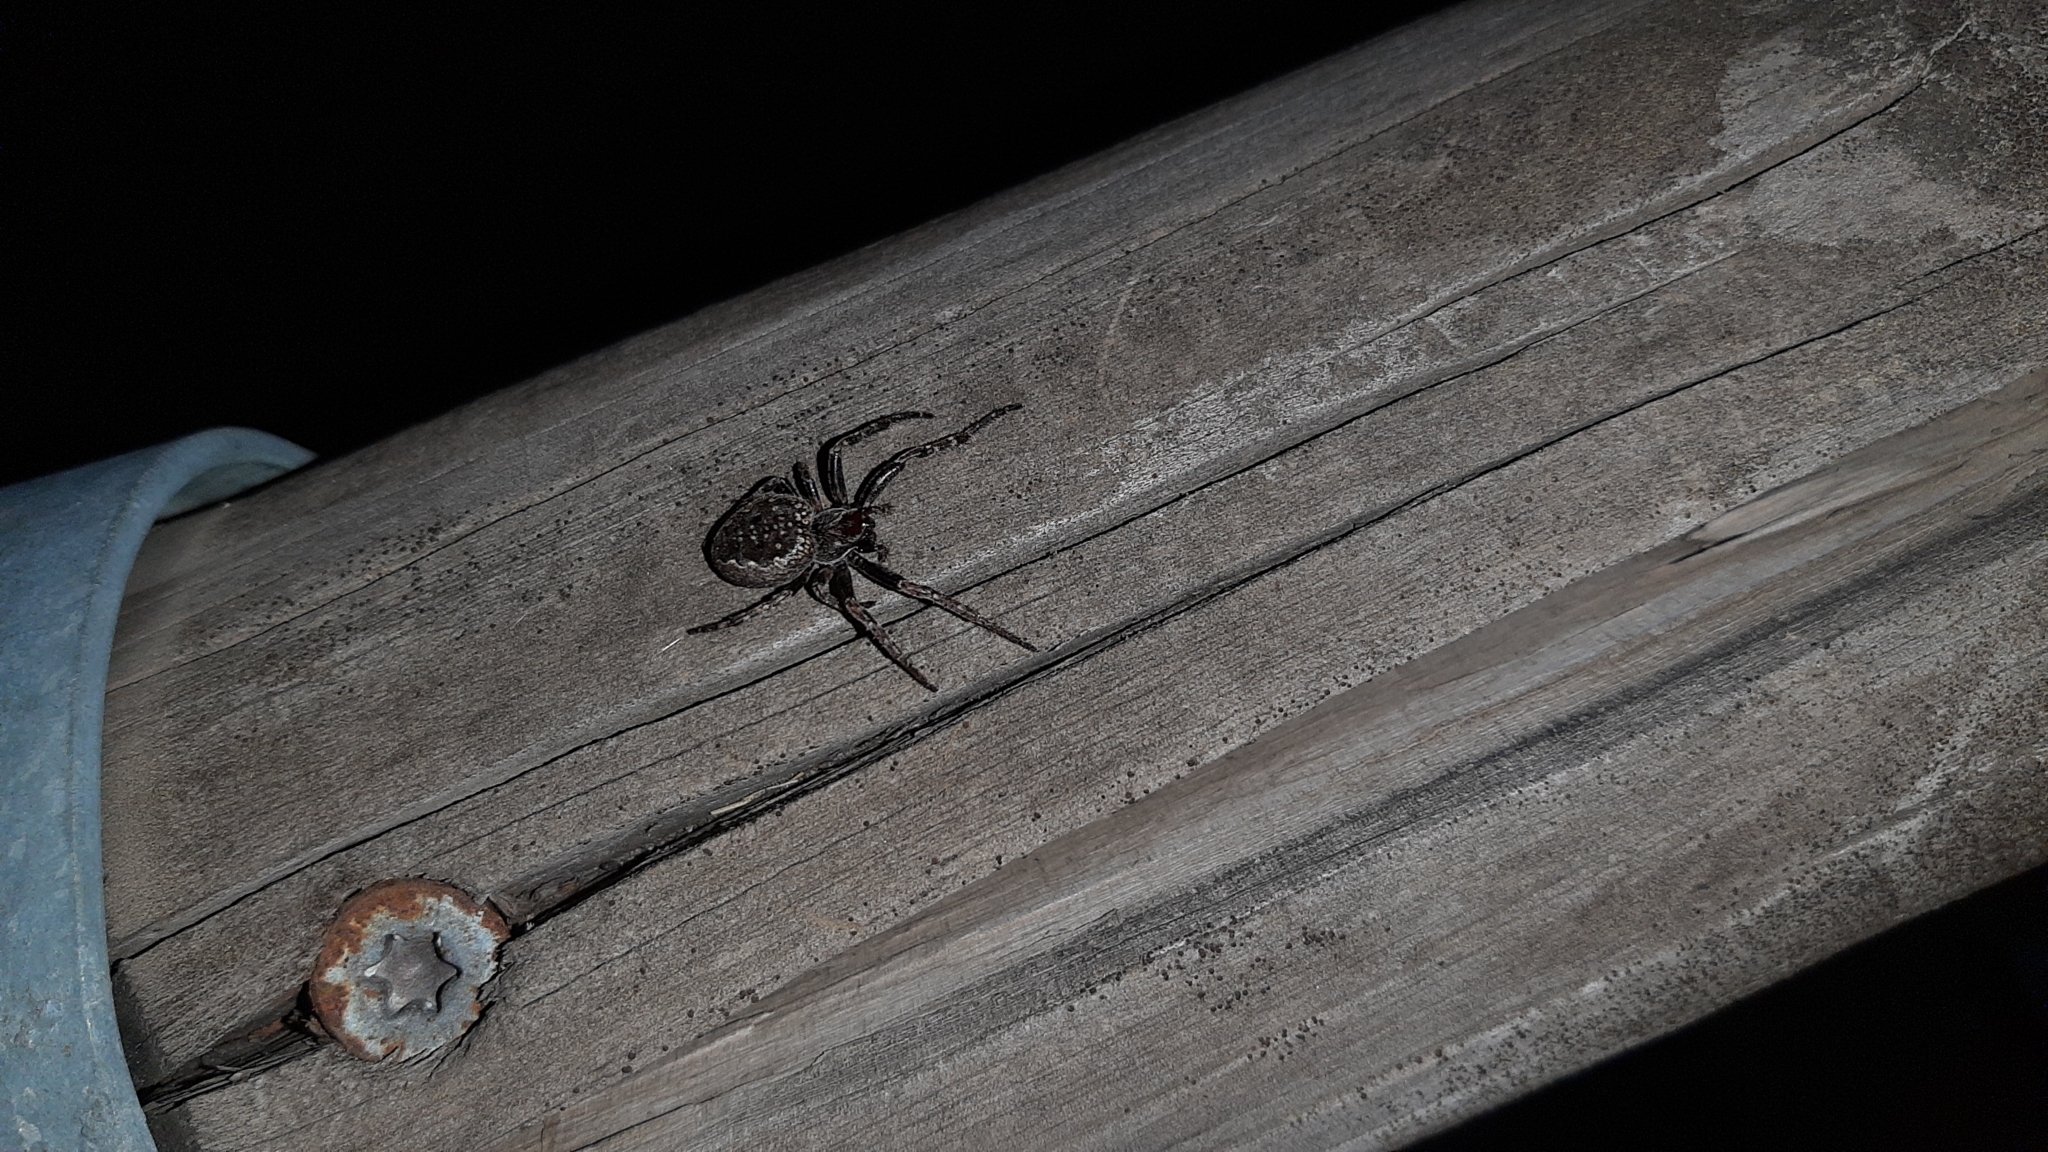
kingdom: Animalia
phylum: Arthropoda
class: Arachnida
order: Araneae
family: Araneidae
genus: Nuctenea
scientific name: Nuctenea umbratica
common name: Toad spider
